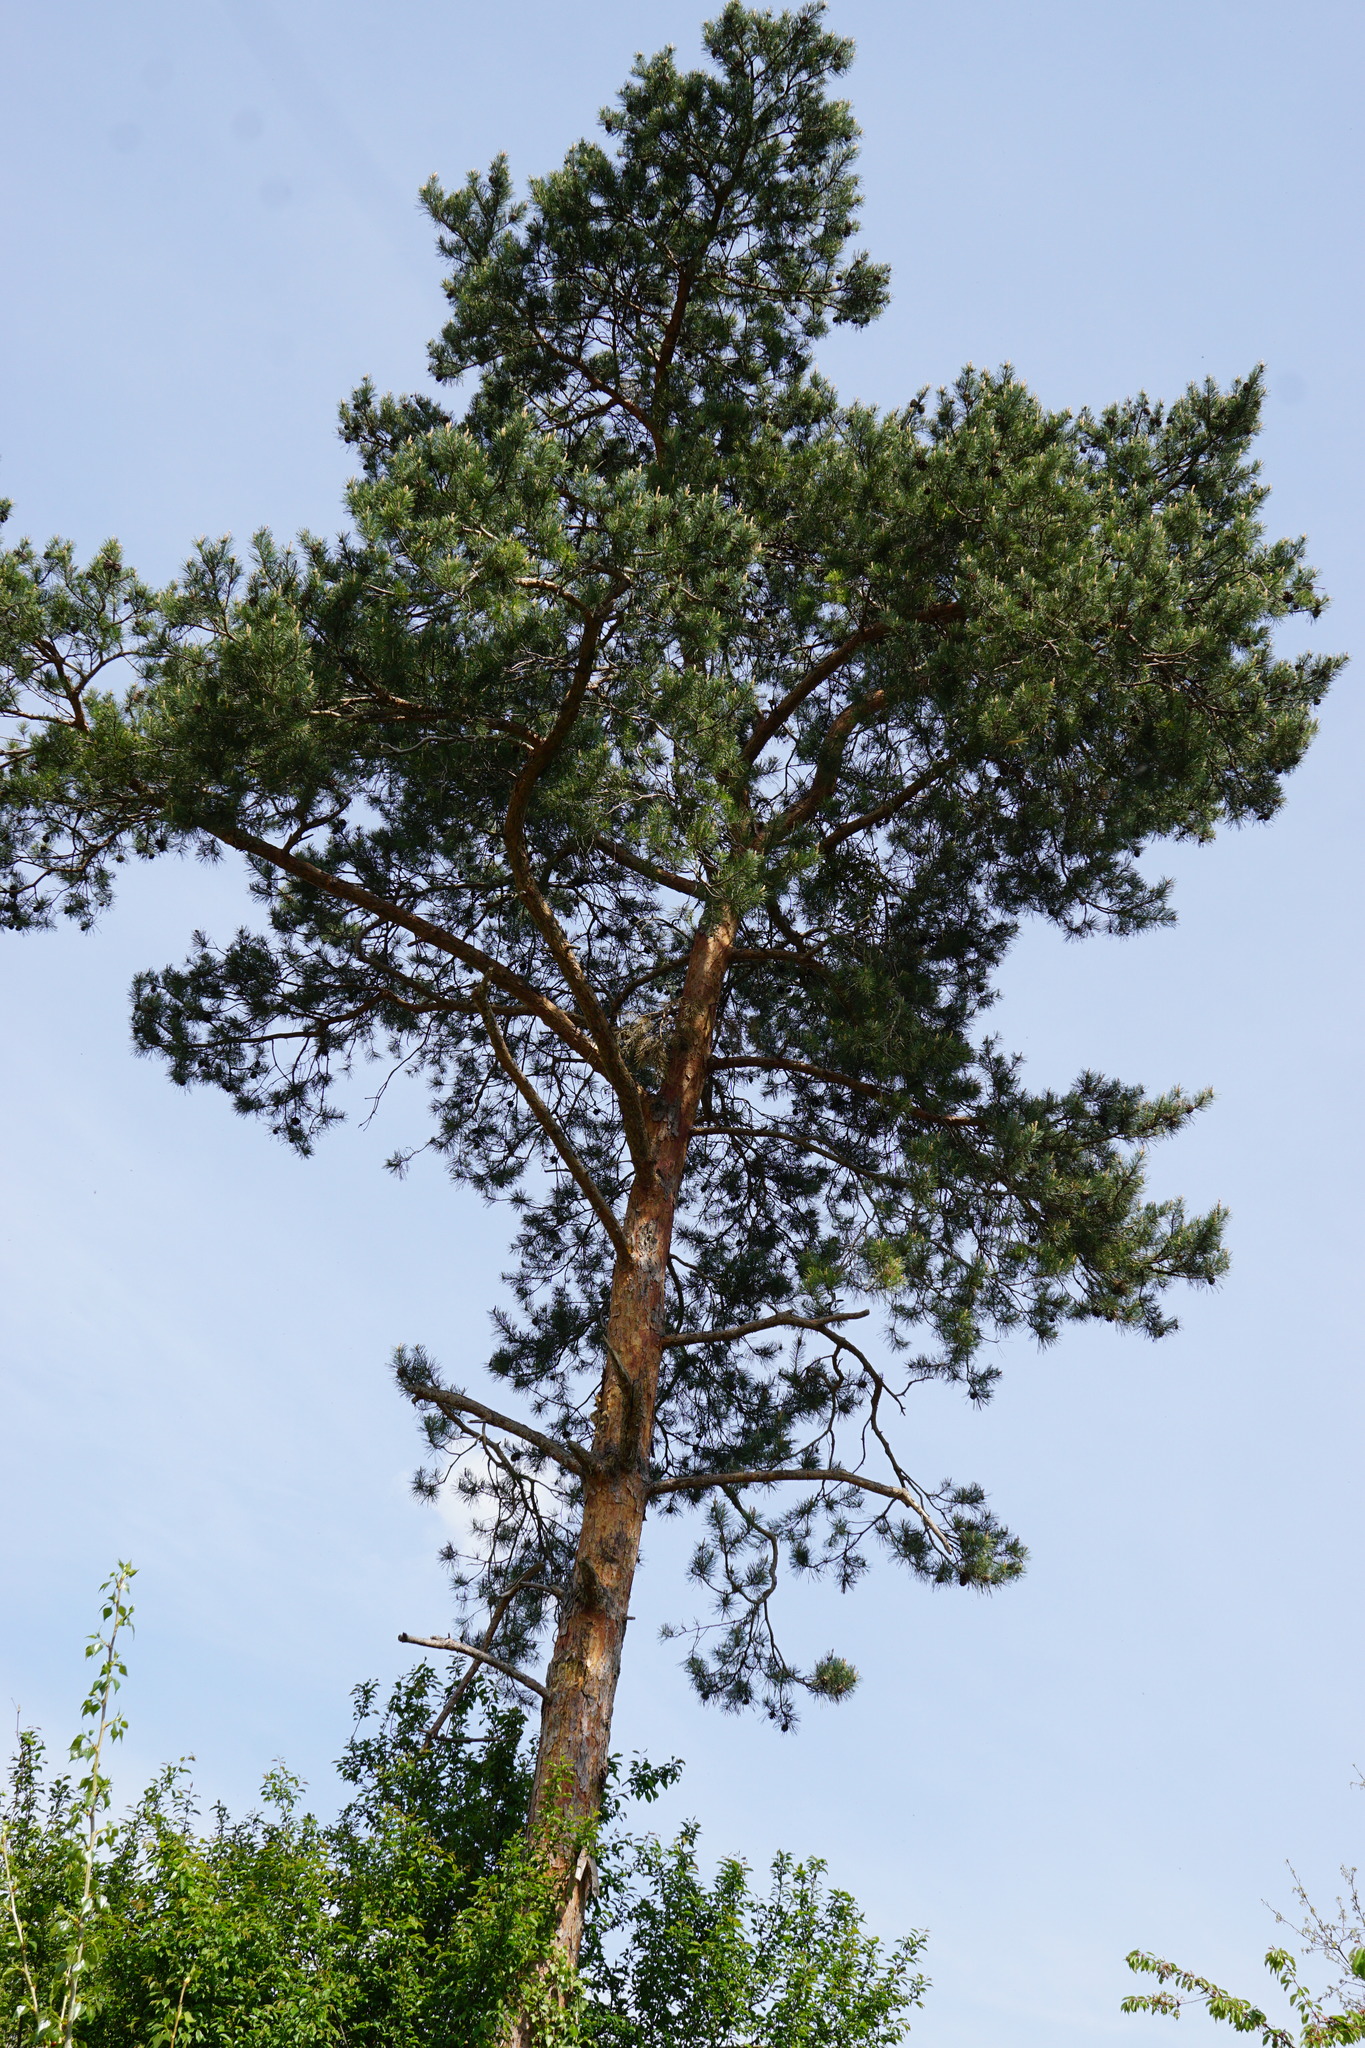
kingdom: Plantae
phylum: Tracheophyta
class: Pinopsida
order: Pinales
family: Pinaceae
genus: Pinus
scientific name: Pinus sylvestris
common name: Scots pine
